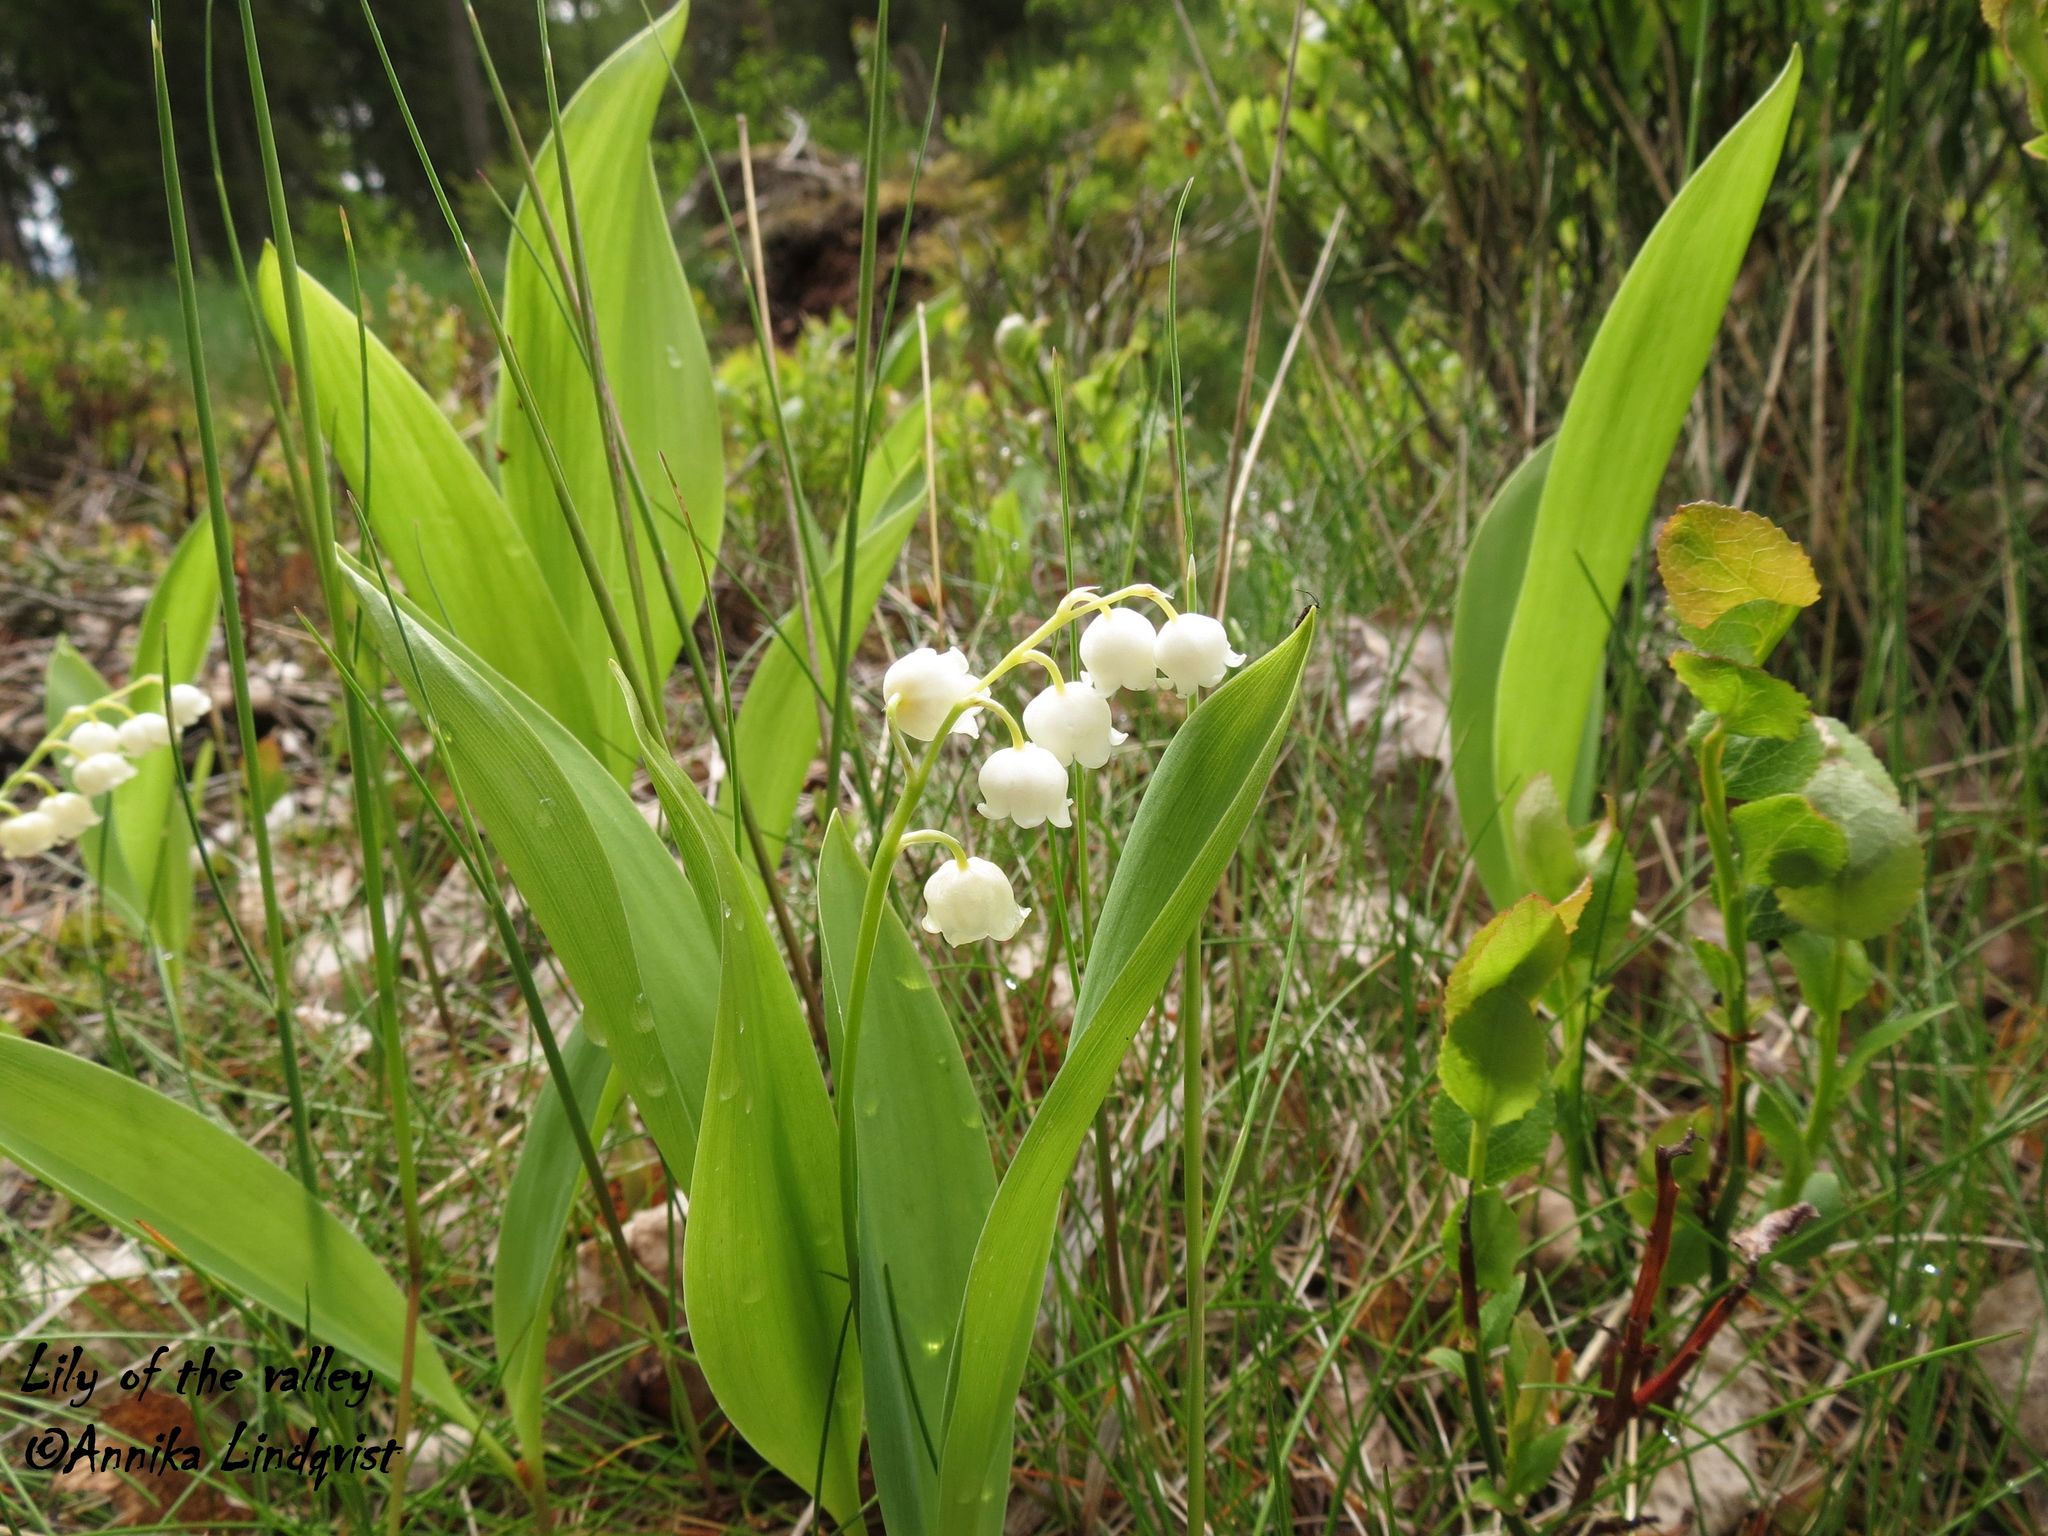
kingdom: Plantae
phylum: Tracheophyta
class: Liliopsida
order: Asparagales
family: Asparagaceae
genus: Convallaria
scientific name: Convallaria majalis
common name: Lily-of-the-valley
